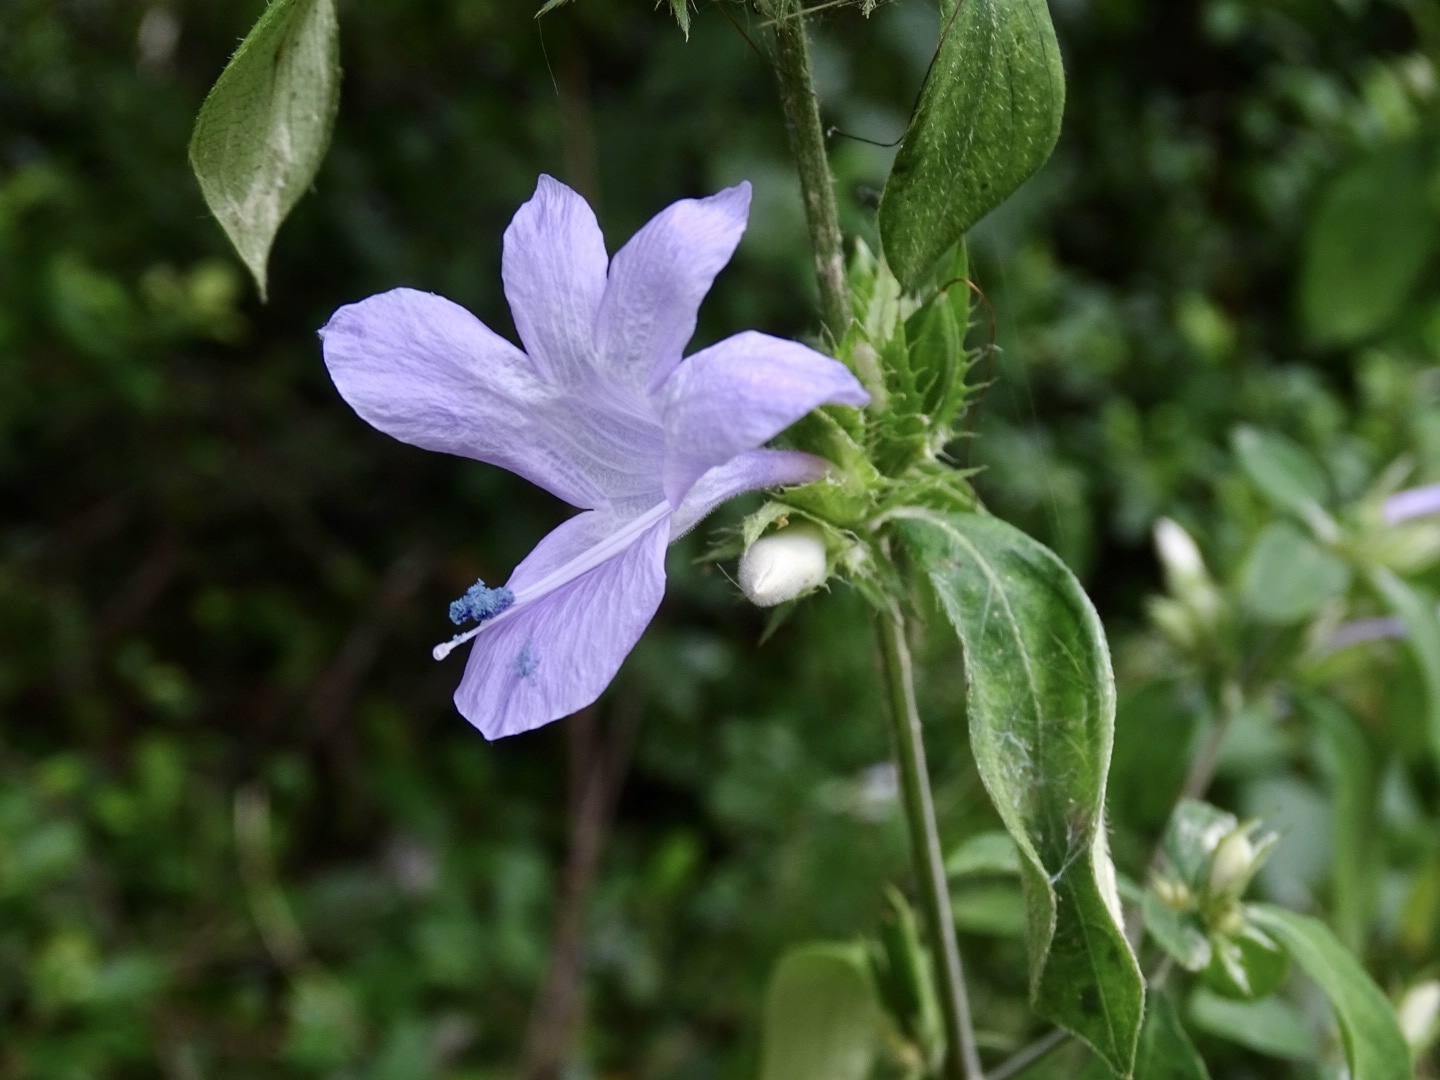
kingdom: Plantae
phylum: Tracheophyta
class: Magnoliopsida
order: Lamiales
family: Acanthaceae
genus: Barleria
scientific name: Barleria cristata
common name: Crested philippine violet
